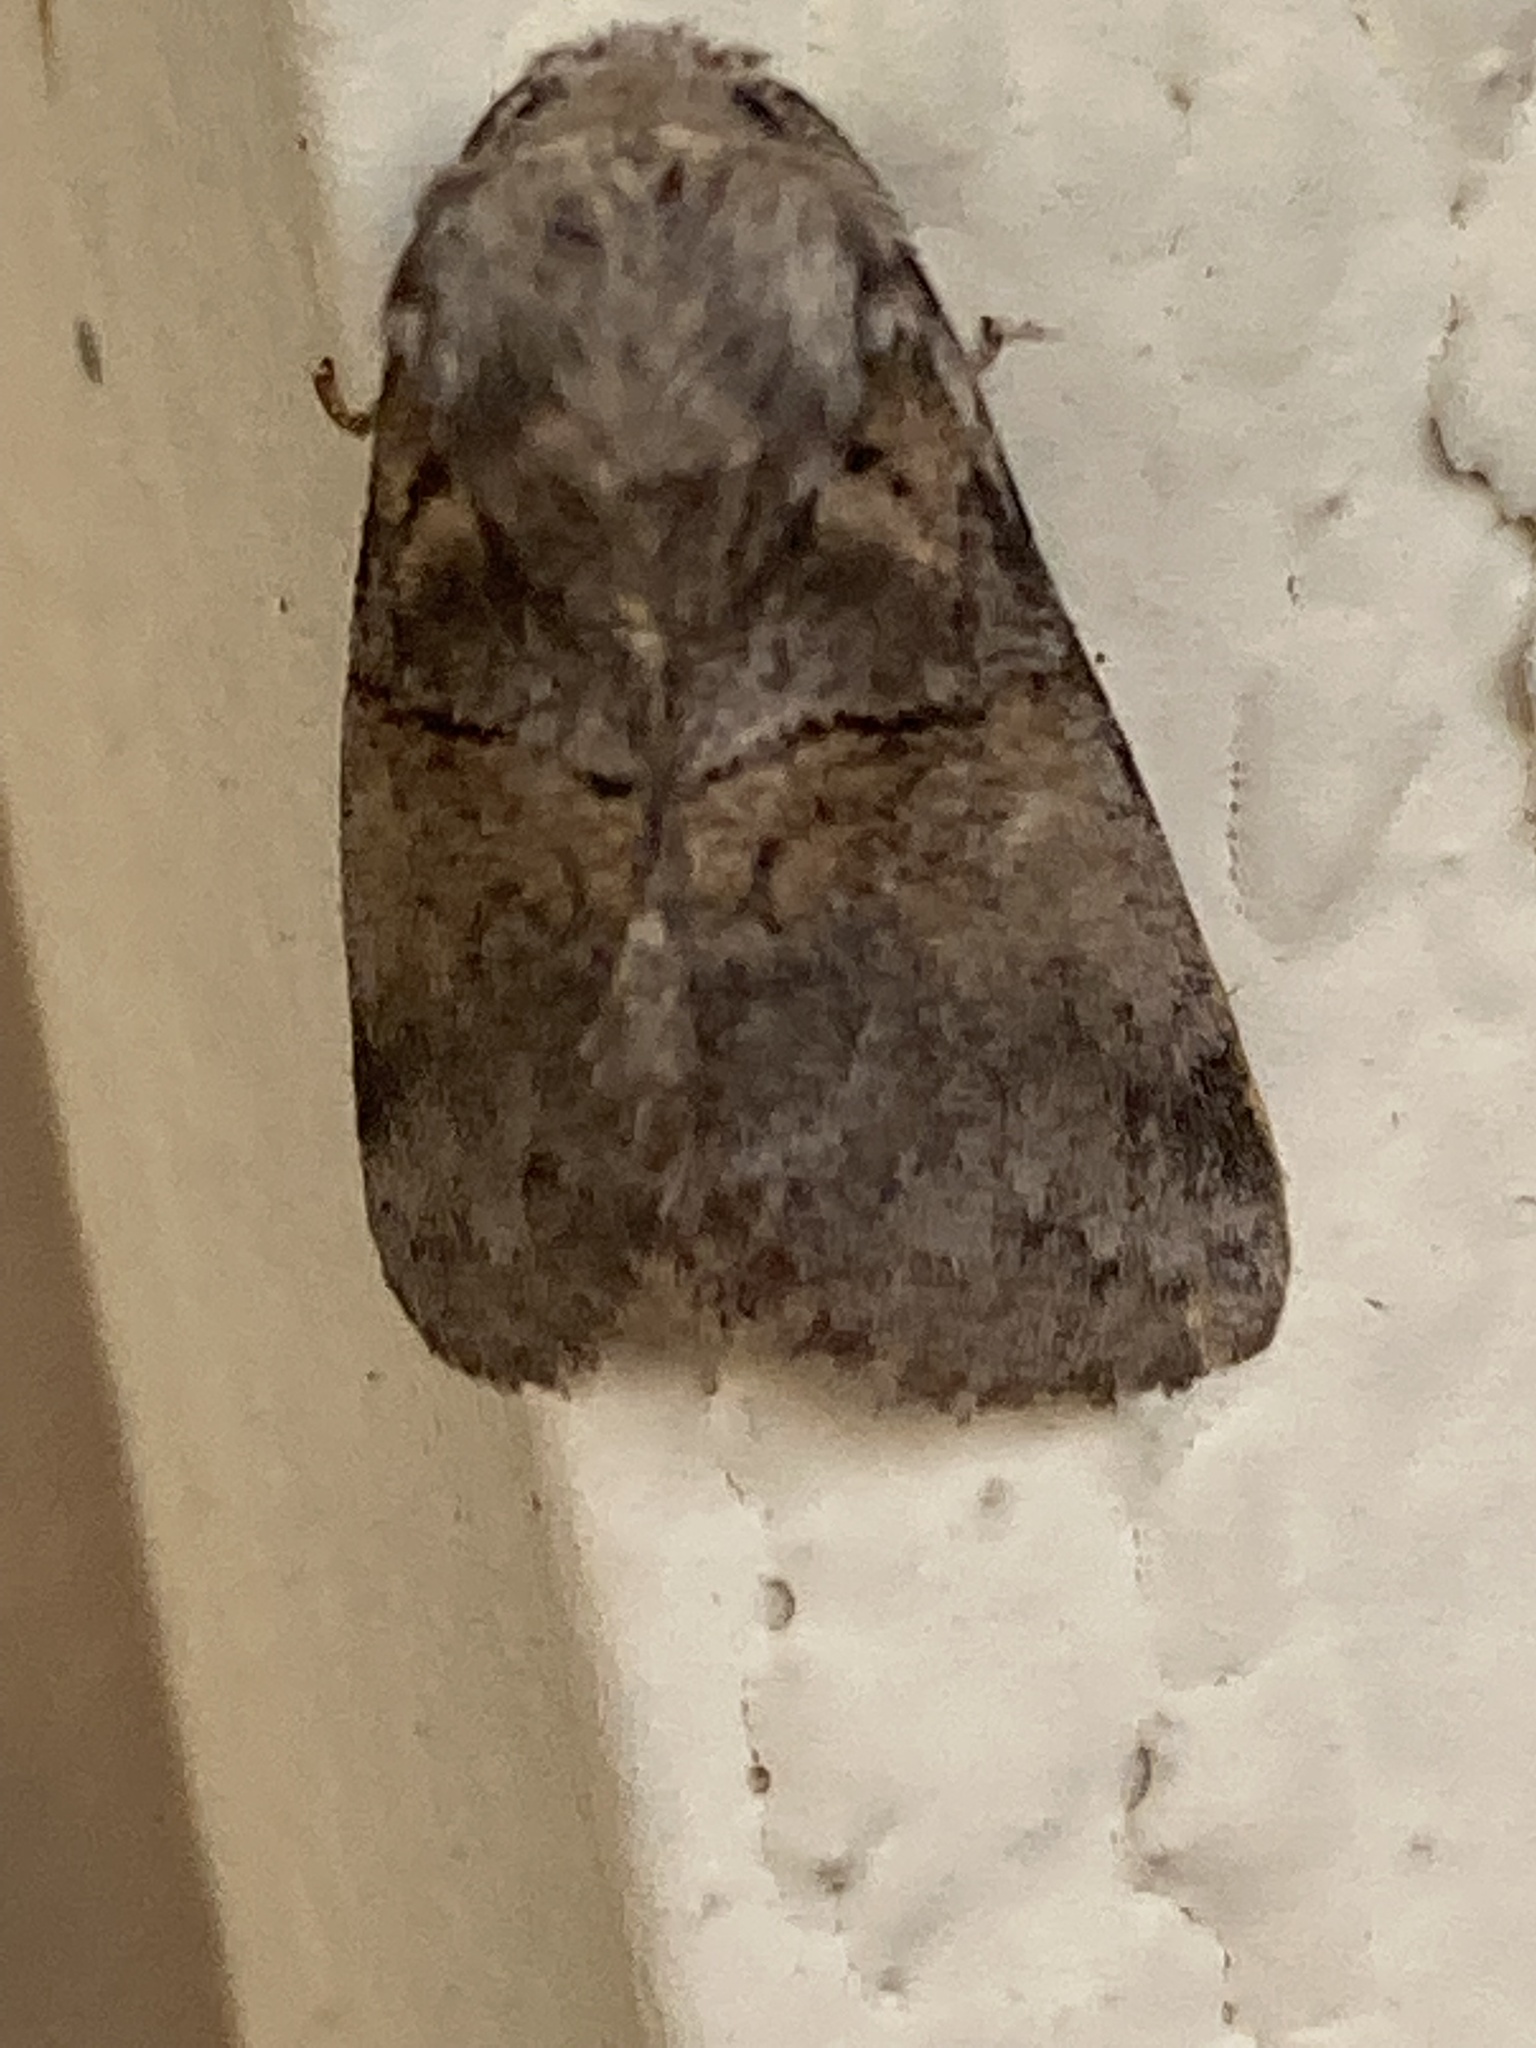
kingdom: Animalia
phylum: Arthropoda
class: Insecta
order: Lepidoptera
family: Notodontidae
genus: Gluphisia
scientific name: Gluphisia septentrionis
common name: Common gluphisia
